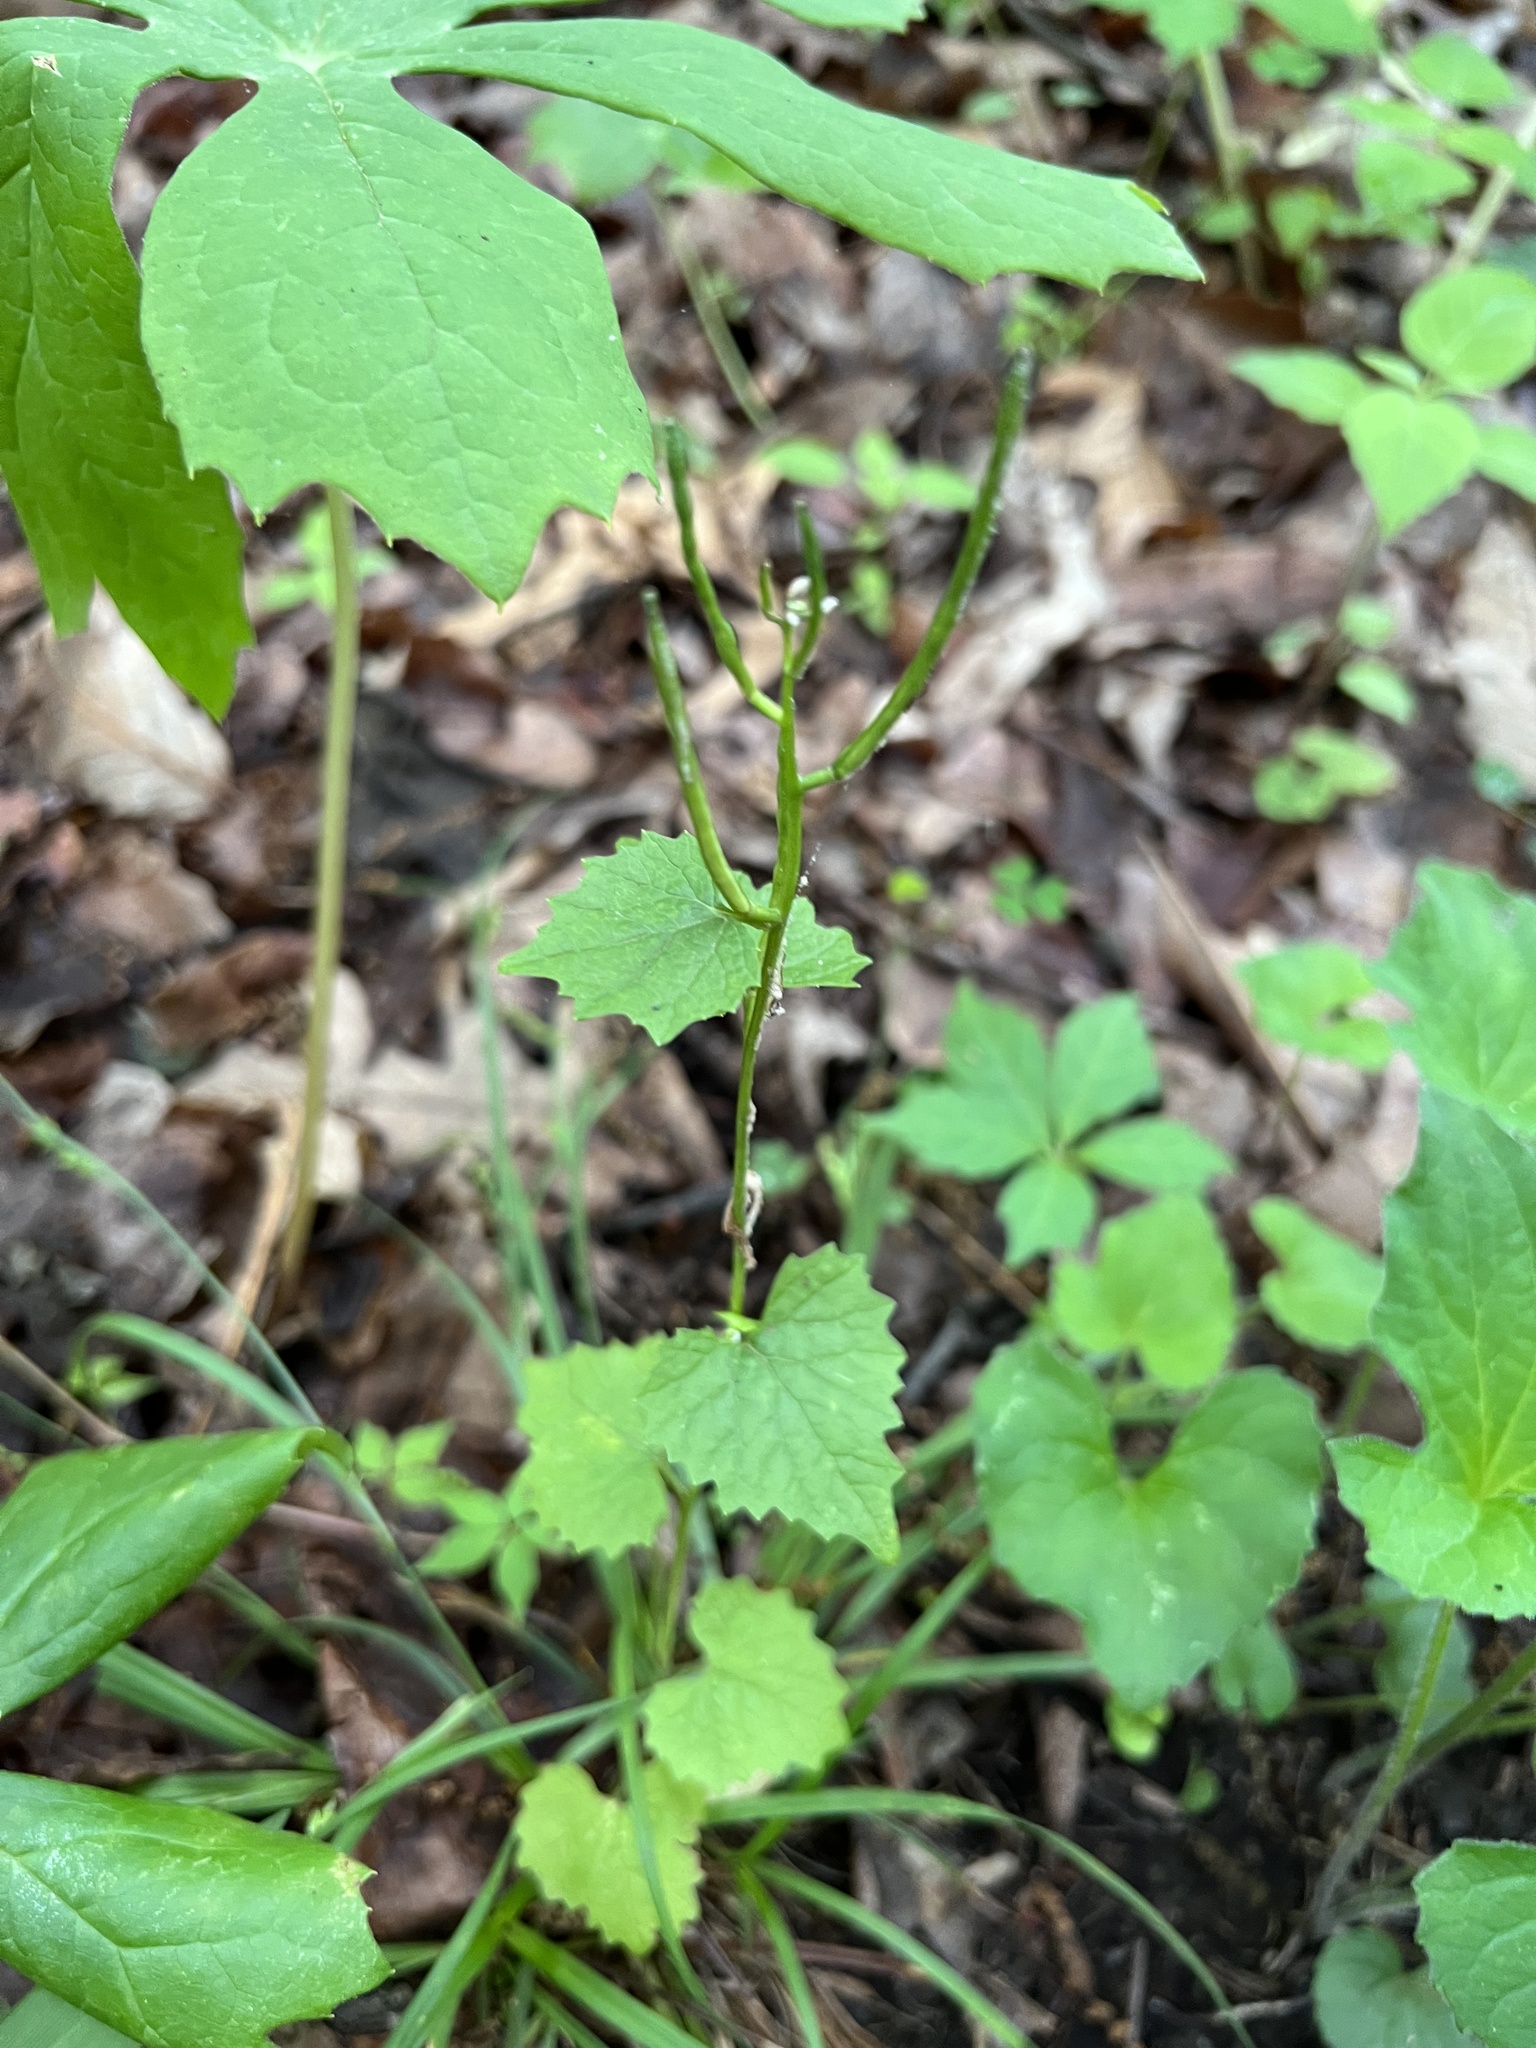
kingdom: Plantae
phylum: Tracheophyta
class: Magnoliopsida
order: Brassicales
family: Brassicaceae
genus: Alliaria
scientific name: Alliaria petiolata
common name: Garlic mustard
